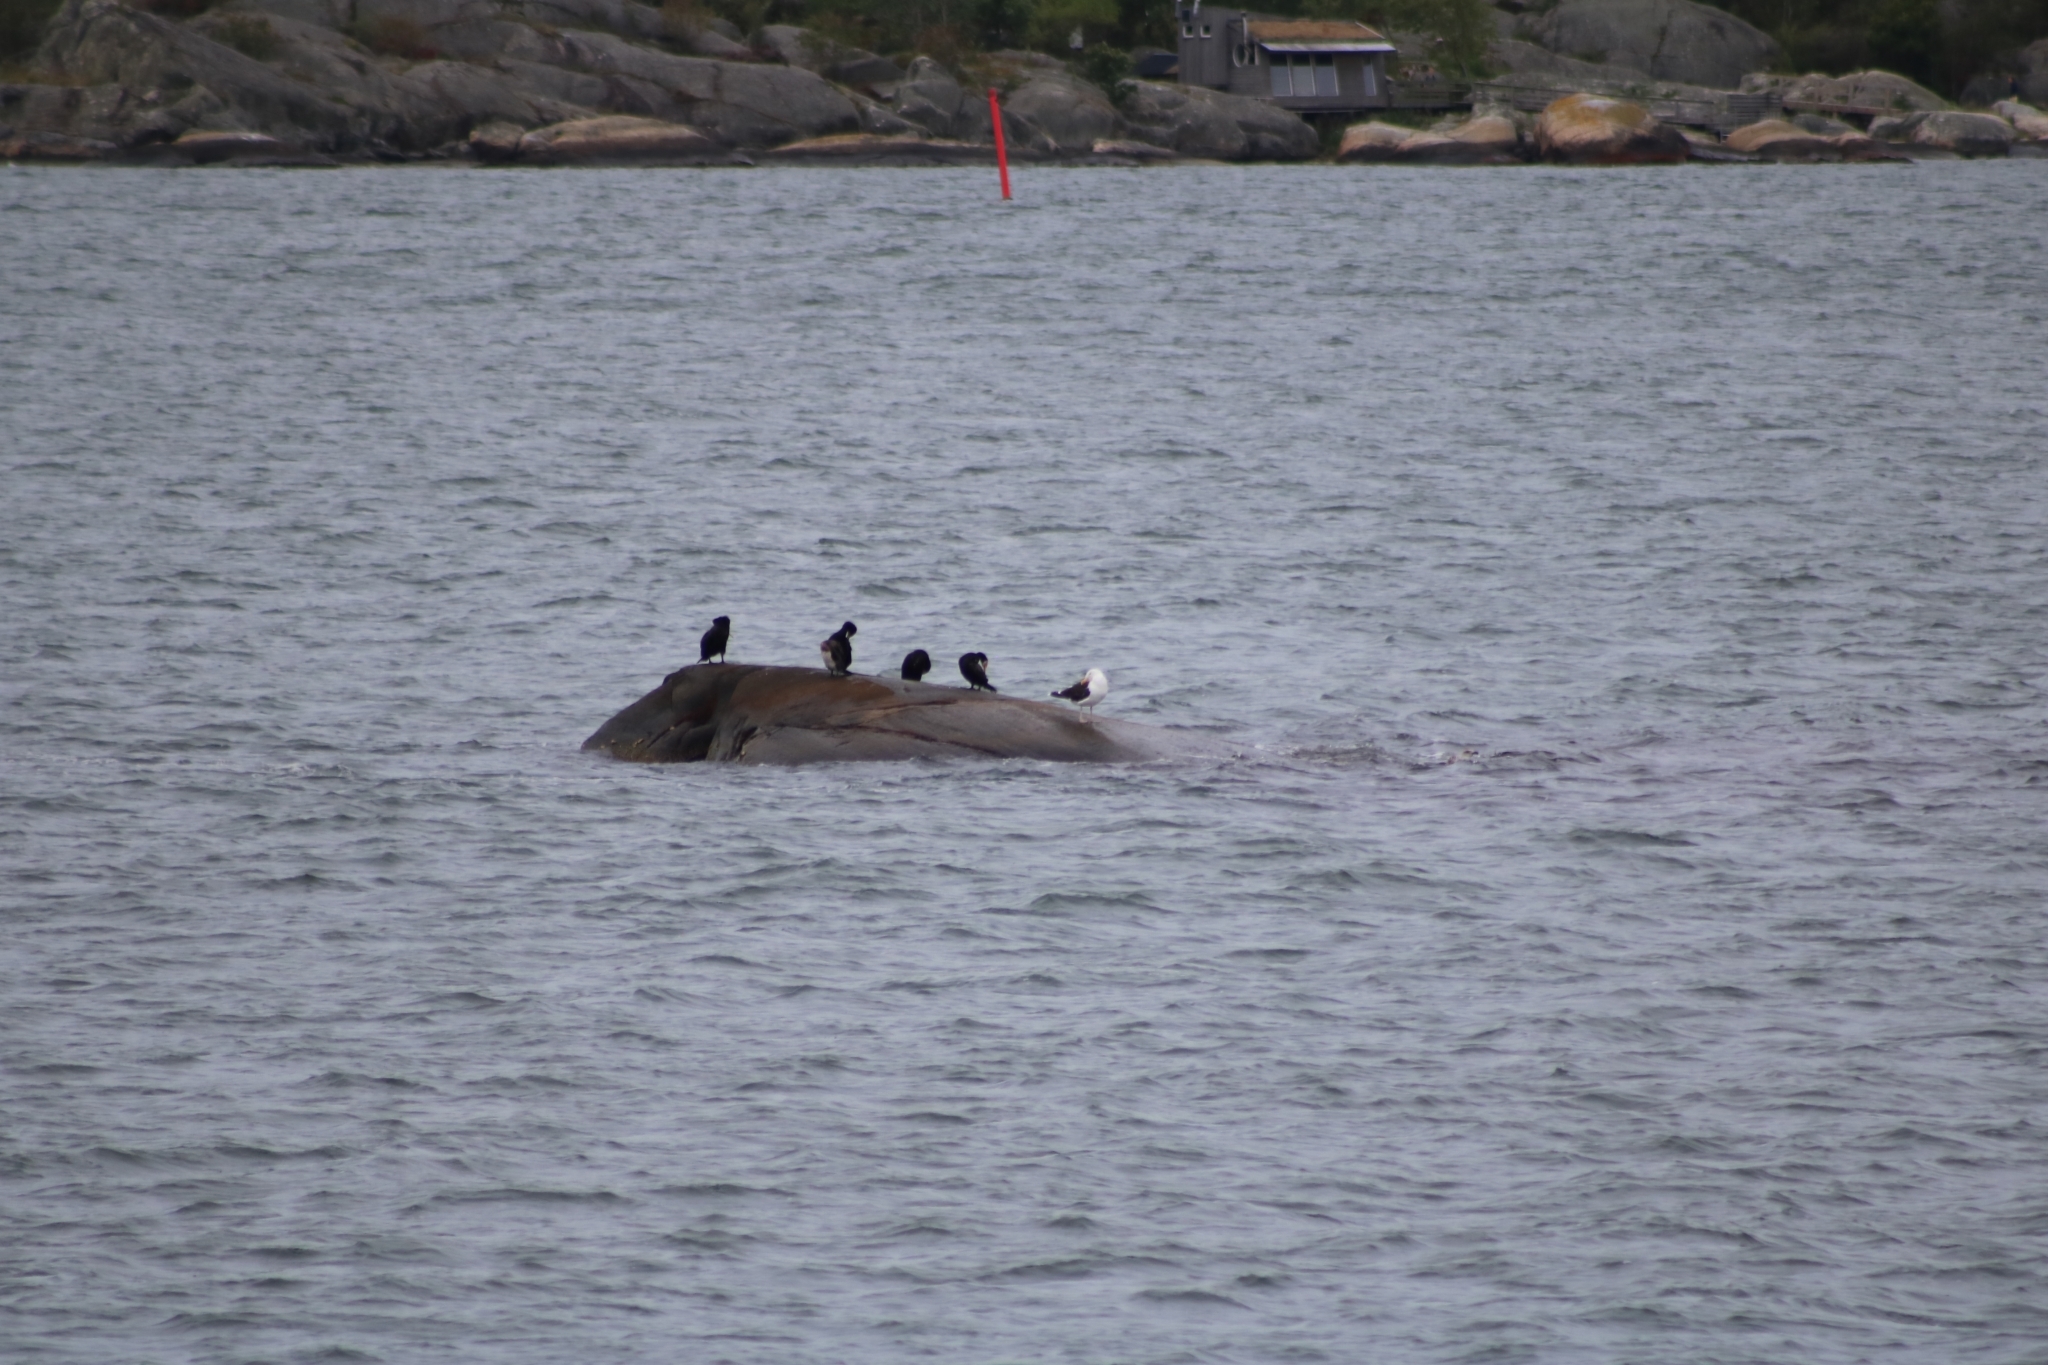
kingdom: Animalia
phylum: Chordata
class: Aves
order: Charadriiformes
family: Laridae
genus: Larus
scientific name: Larus marinus
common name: Great black-backed gull
